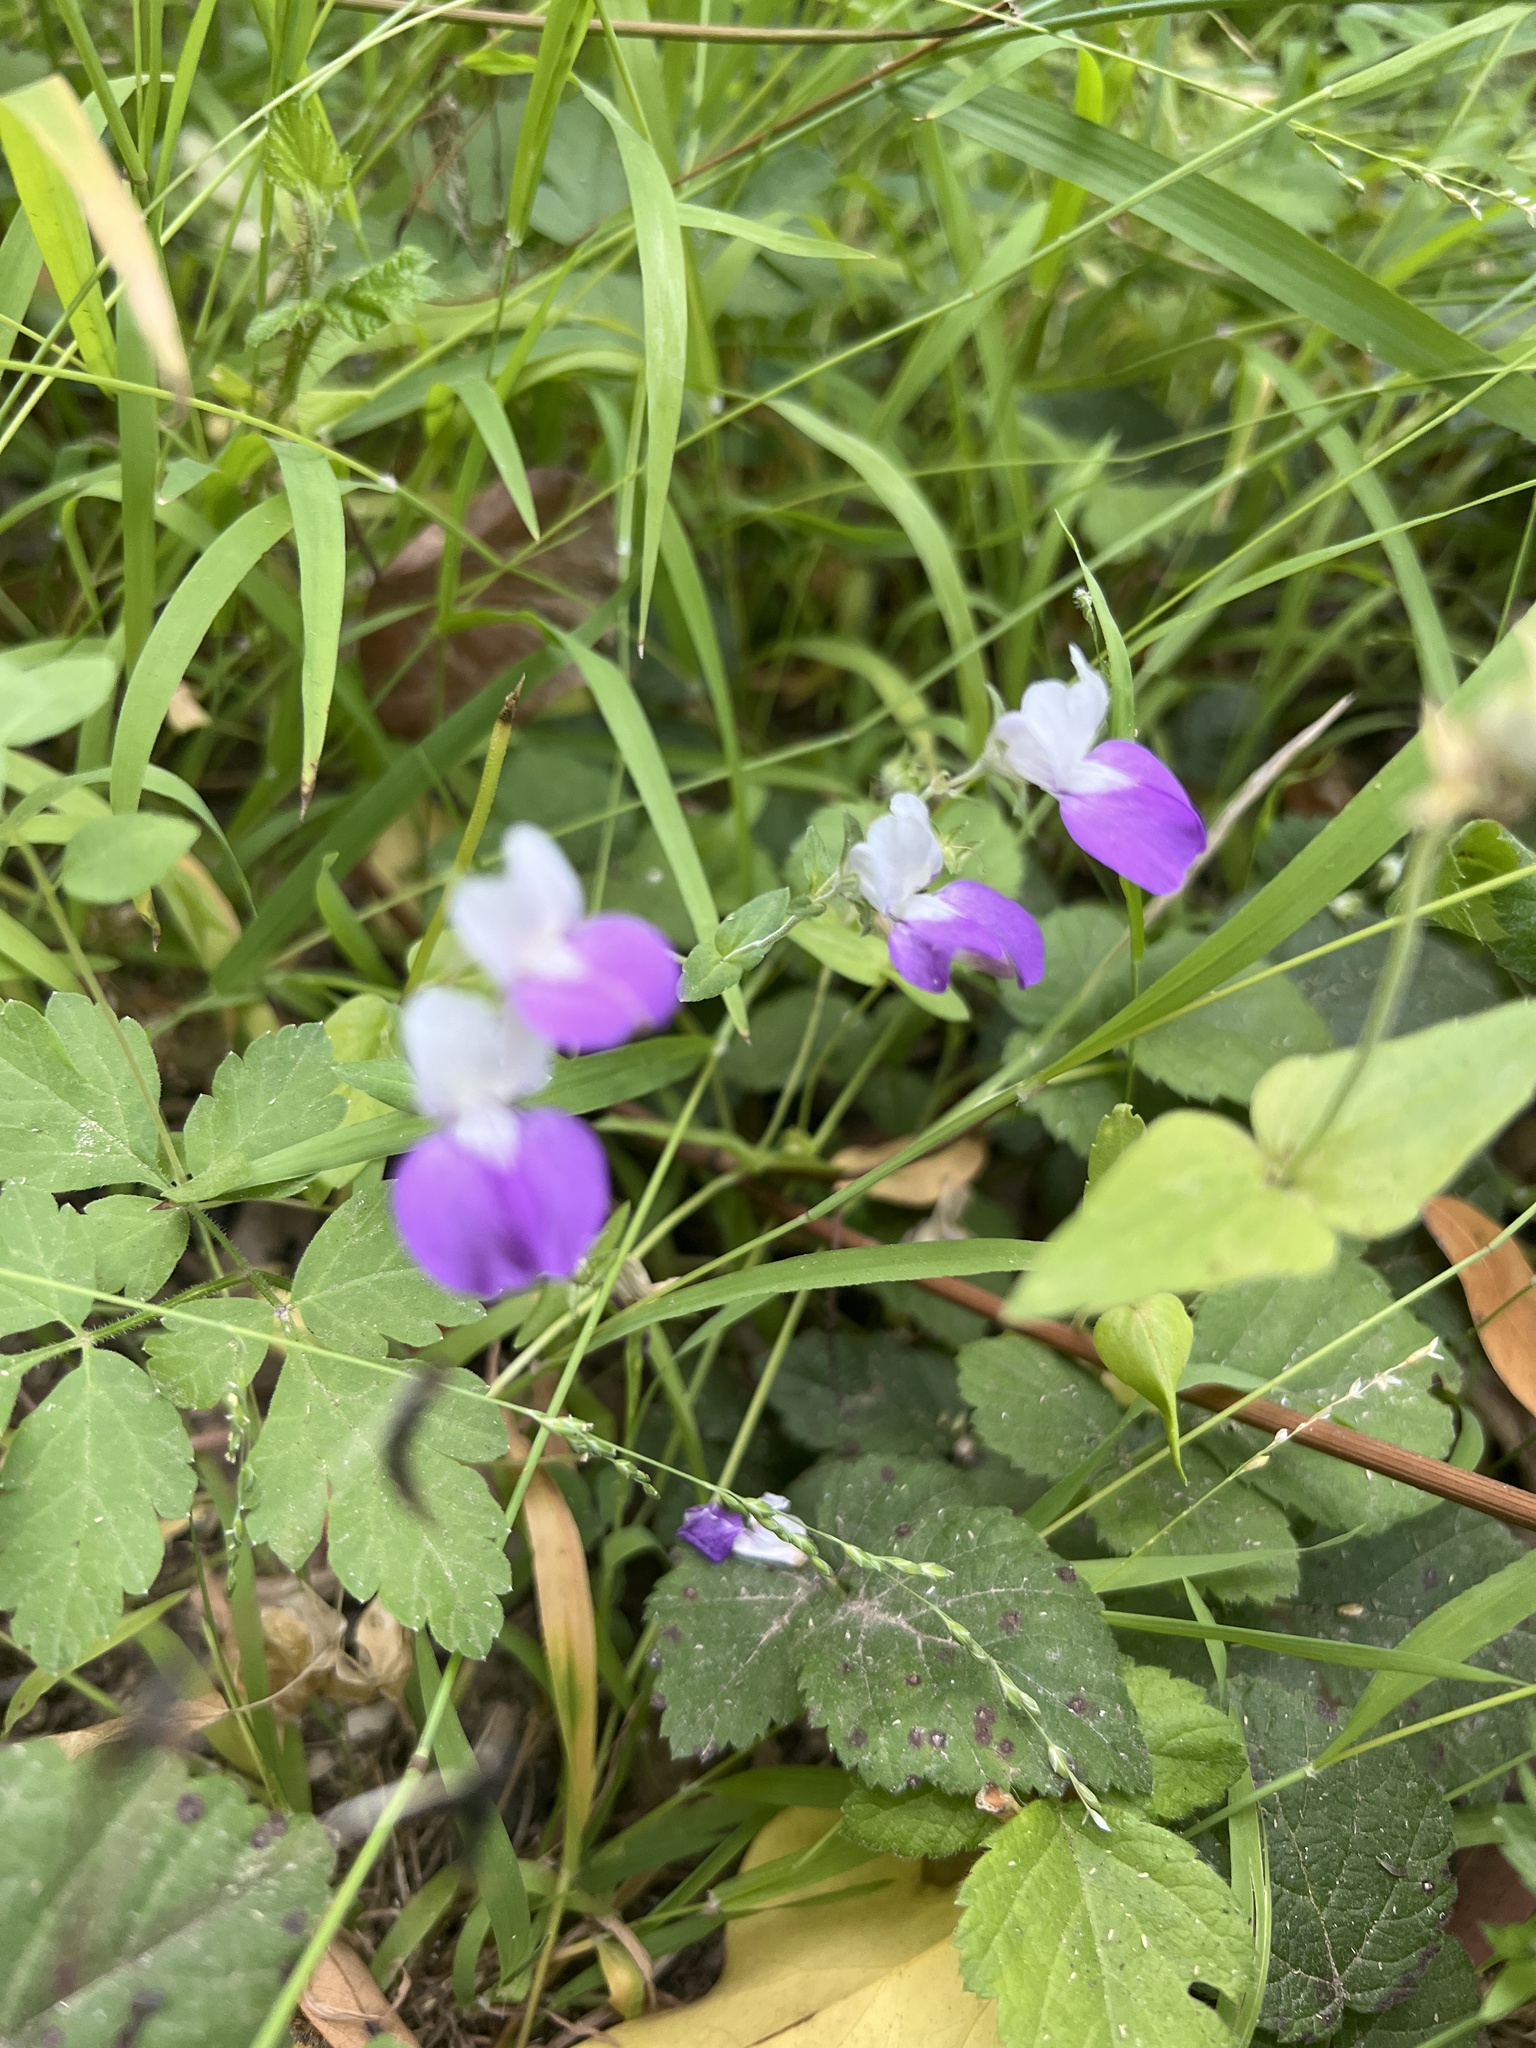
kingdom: Plantae
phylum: Tracheophyta
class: Magnoliopsida
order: Lamiales
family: Plantaginaceae
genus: Collinsia
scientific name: Collinsia heterophylla
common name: Chinese-houses
